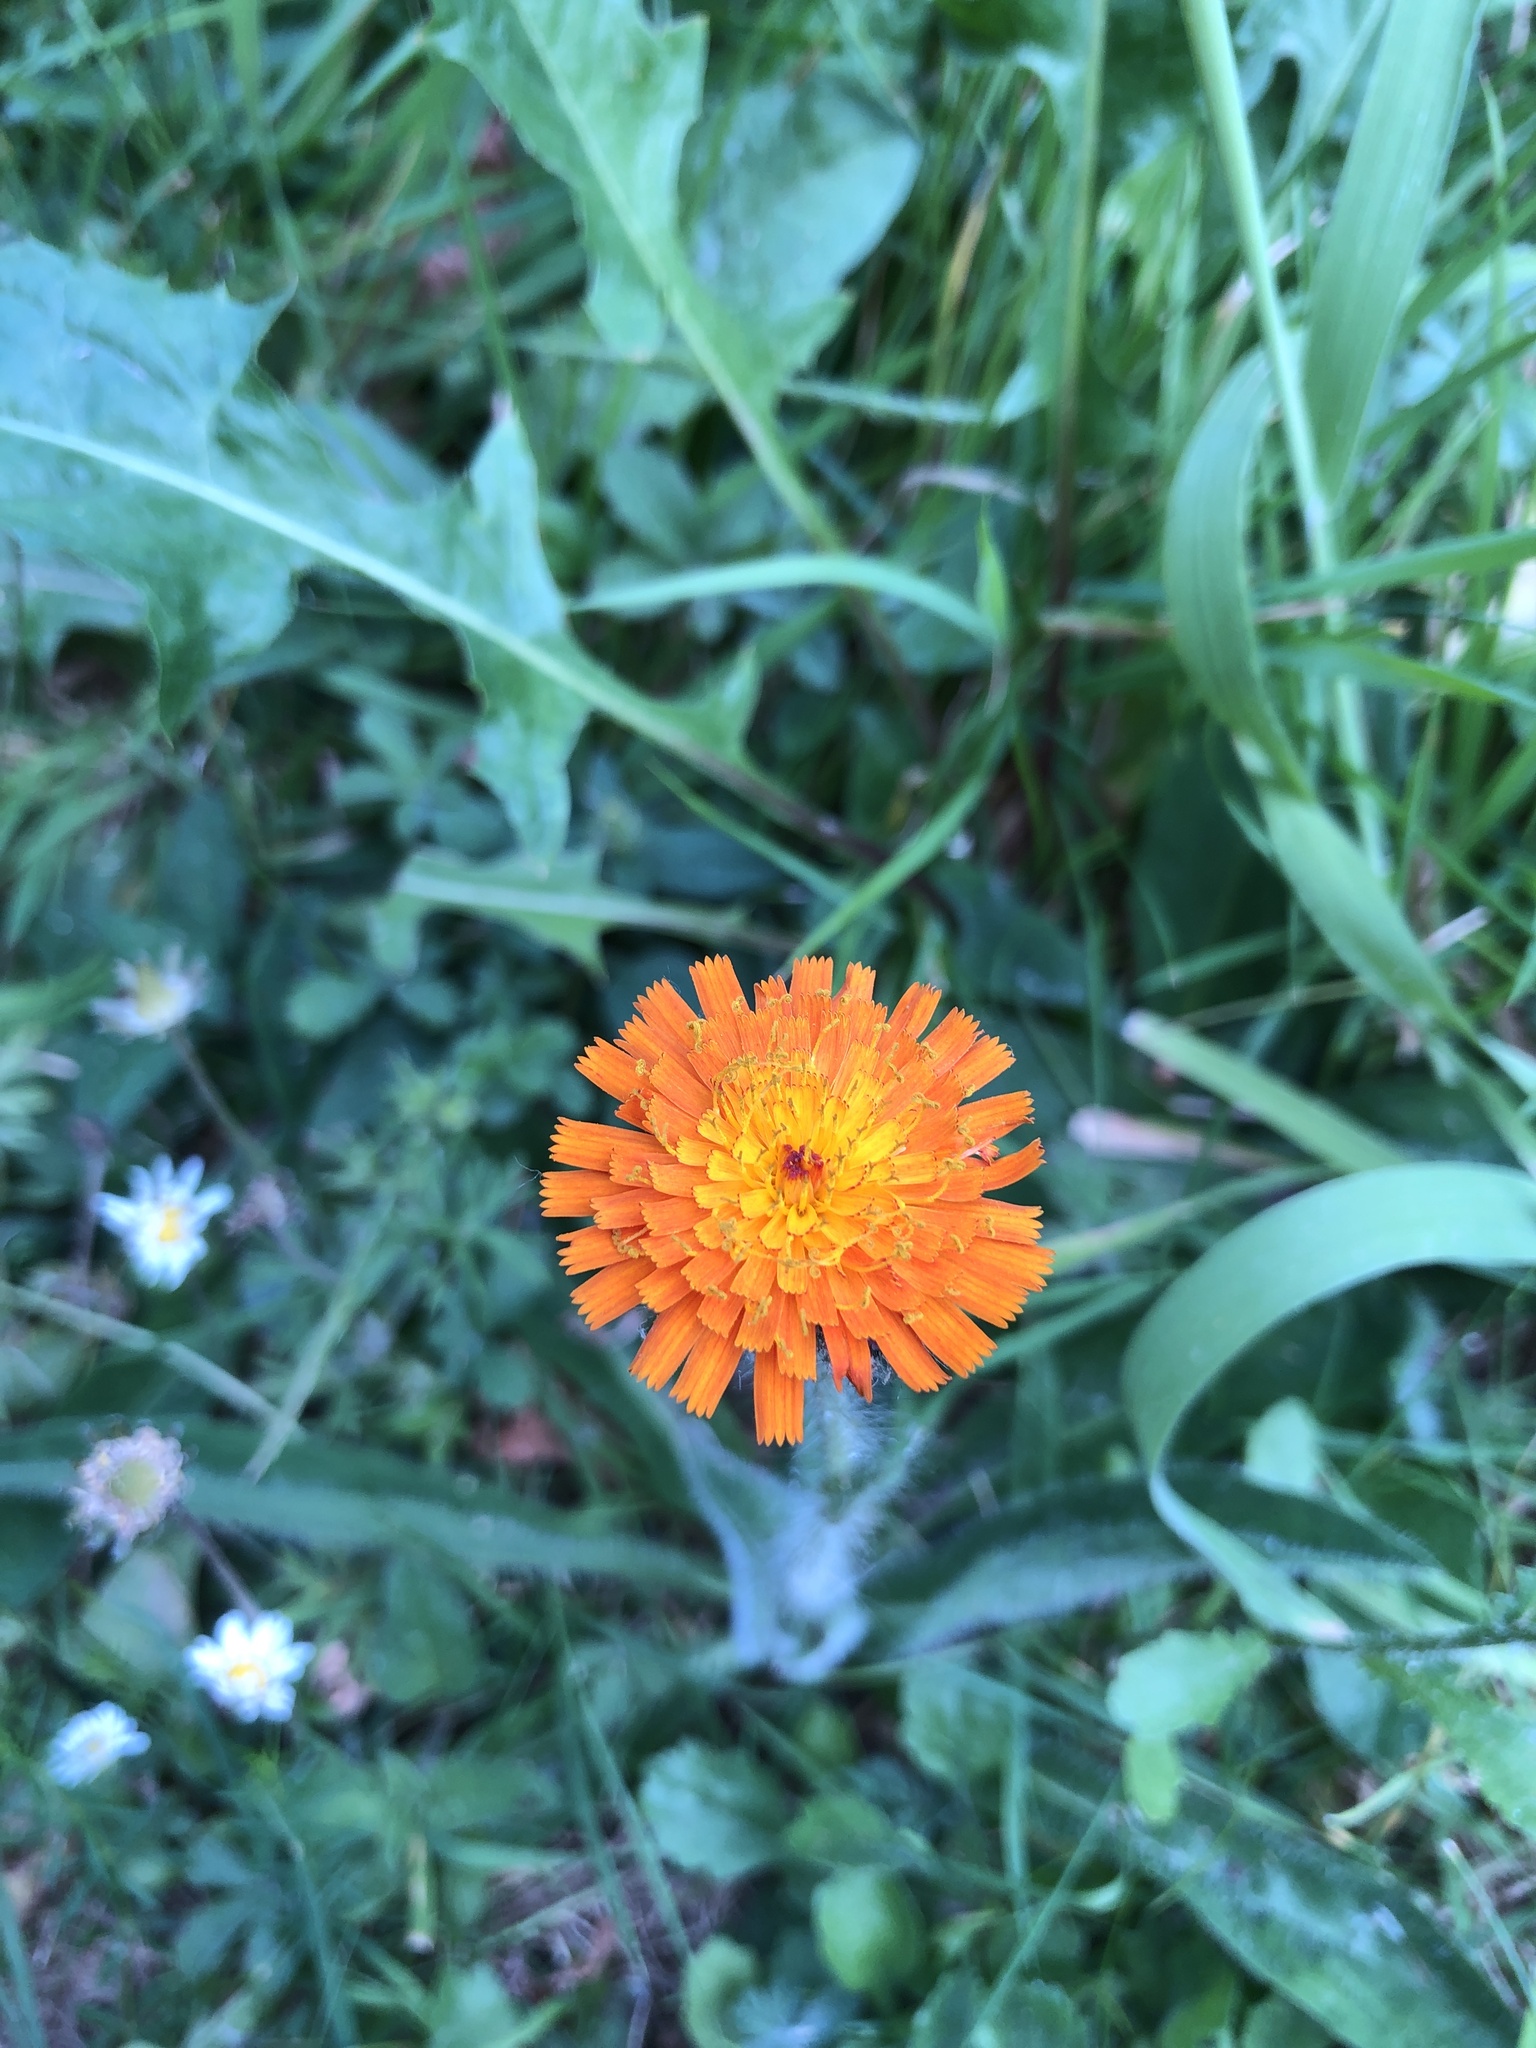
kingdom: Plantae
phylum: Tracheophyta
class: Magnoliopsida
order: Asterales
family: Asteraceae
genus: Pilosella
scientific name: Pilosella aurantiaca
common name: Fox-and-cubs
